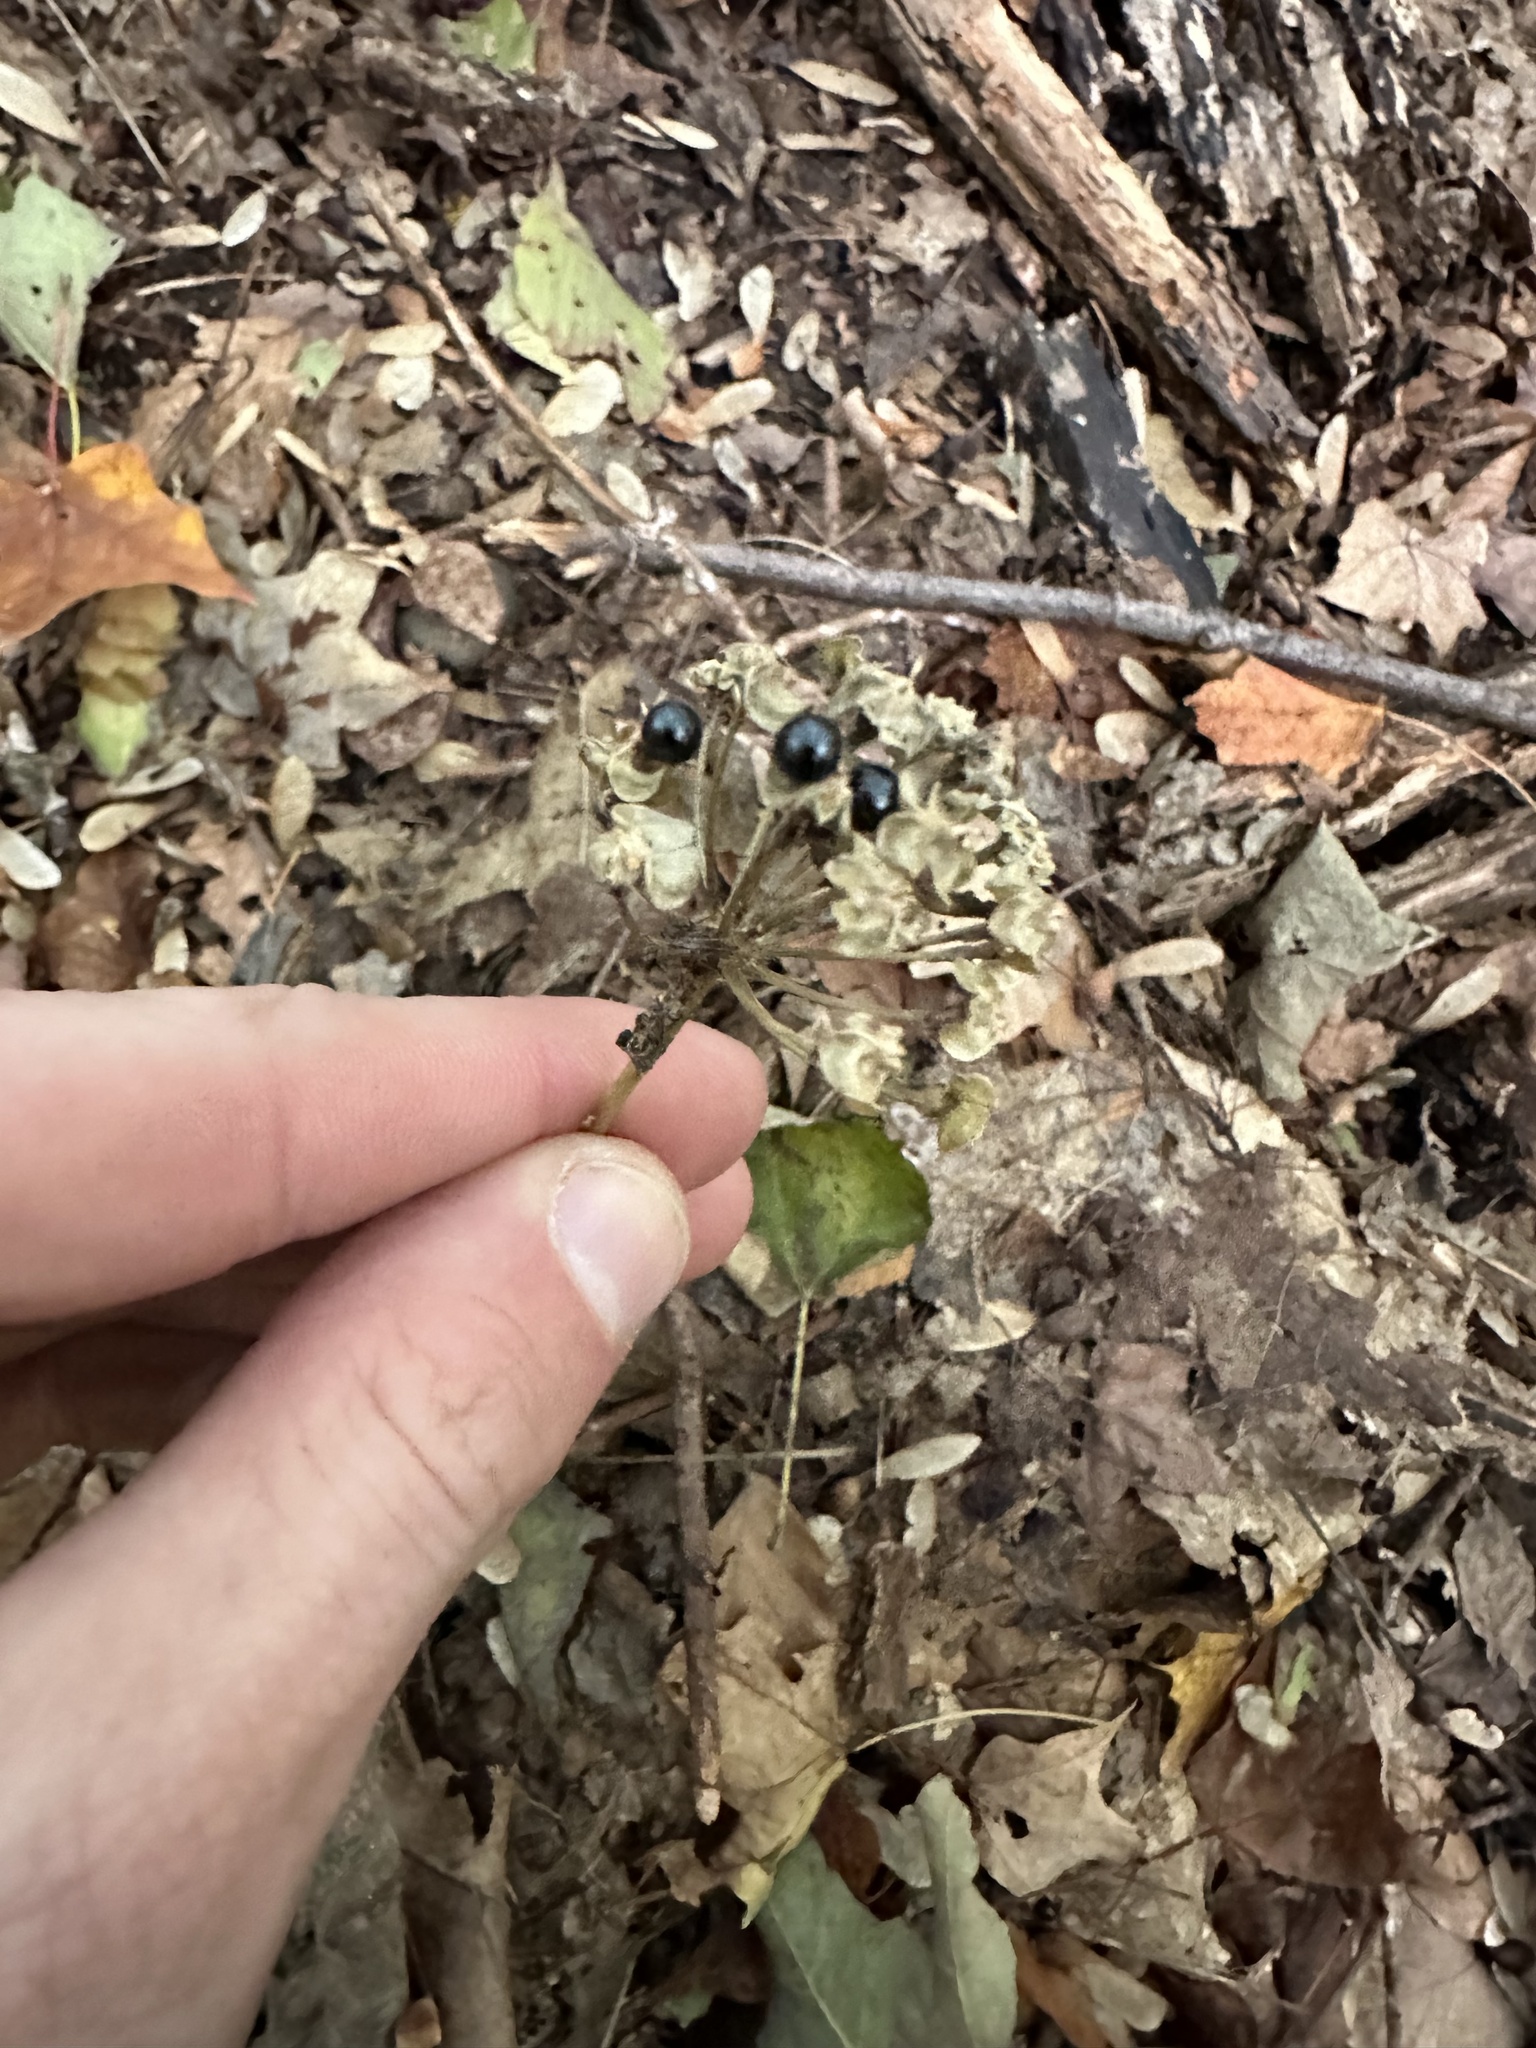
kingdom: Plantae
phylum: Tracheophyta
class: Liliopsida
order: Asparagales
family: Amaryllidaceae
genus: Allium
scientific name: Allium tricoccum
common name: Ramp
